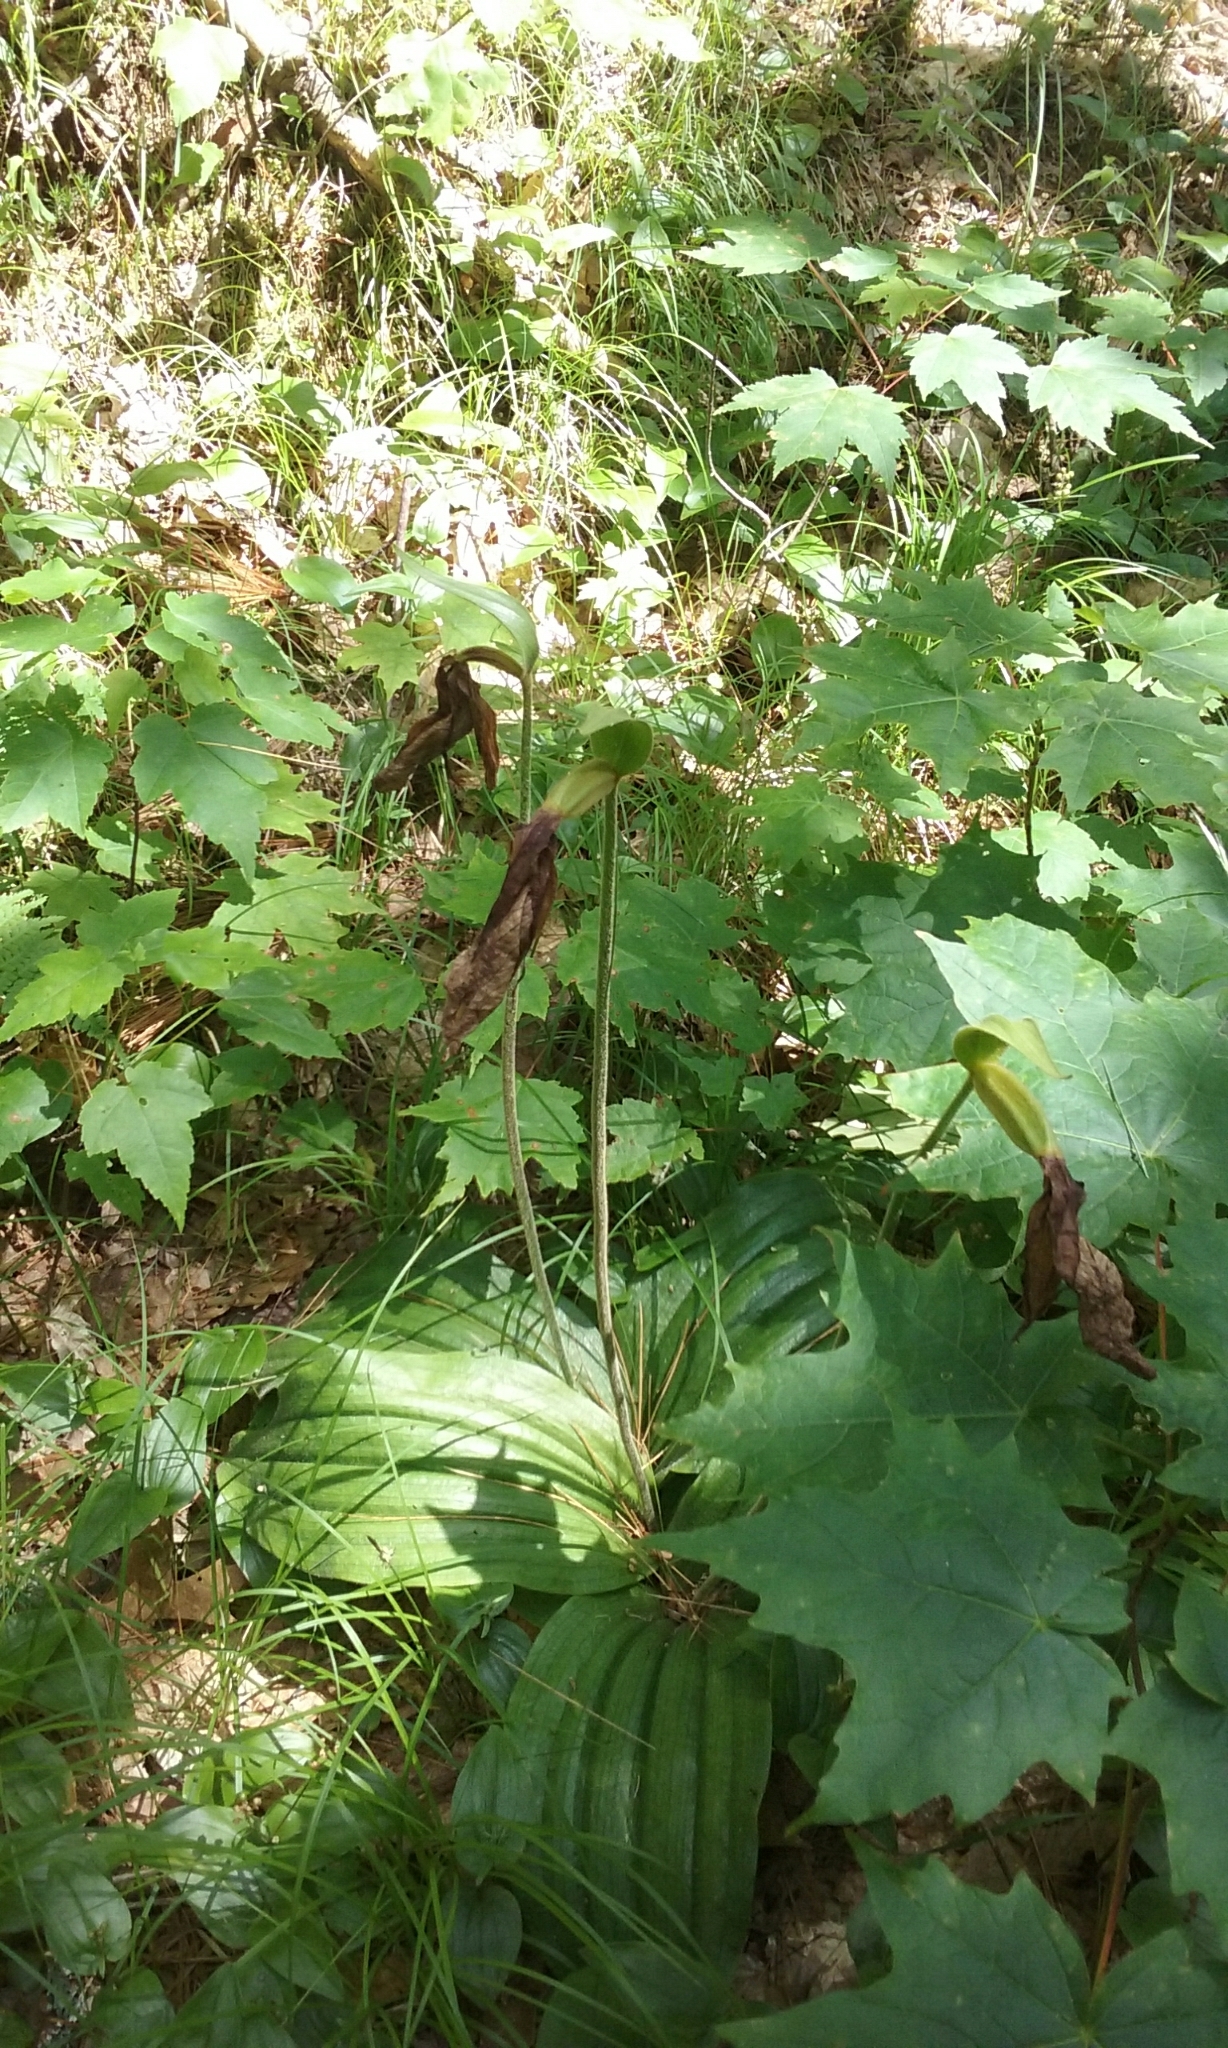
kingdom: Plantae
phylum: Tracheophyta
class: Liliopsida
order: Asparagales
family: Orchidaceae
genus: Cypripedium
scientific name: Cypripedium acaule
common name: Pink lady's-slipper
